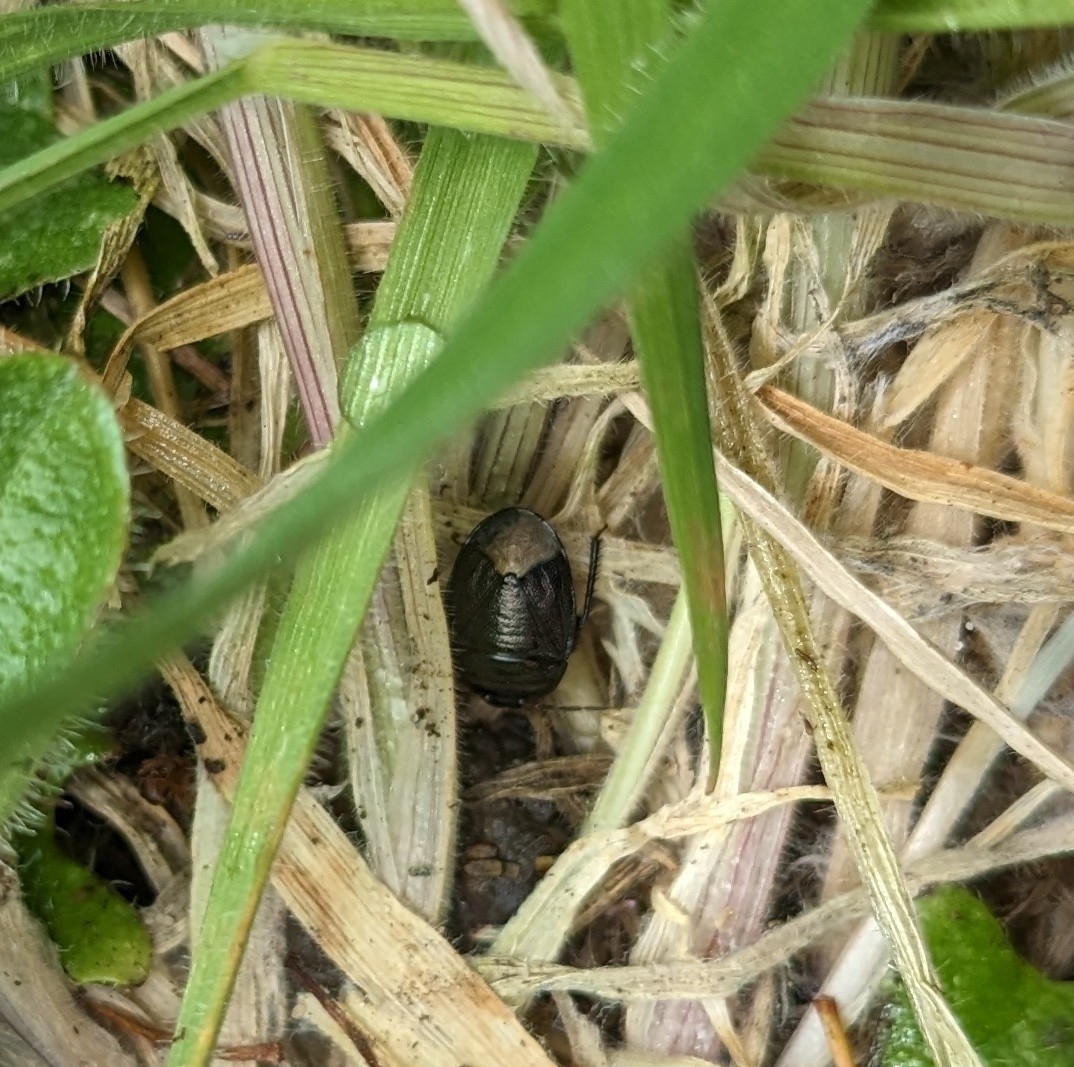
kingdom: Animalia
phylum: Arthropoda
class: Insecta
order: Hemiptera
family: Cydnidae
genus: Sehirus
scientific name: Sehirus luctuosus
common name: Forget-me-not shieldbug
